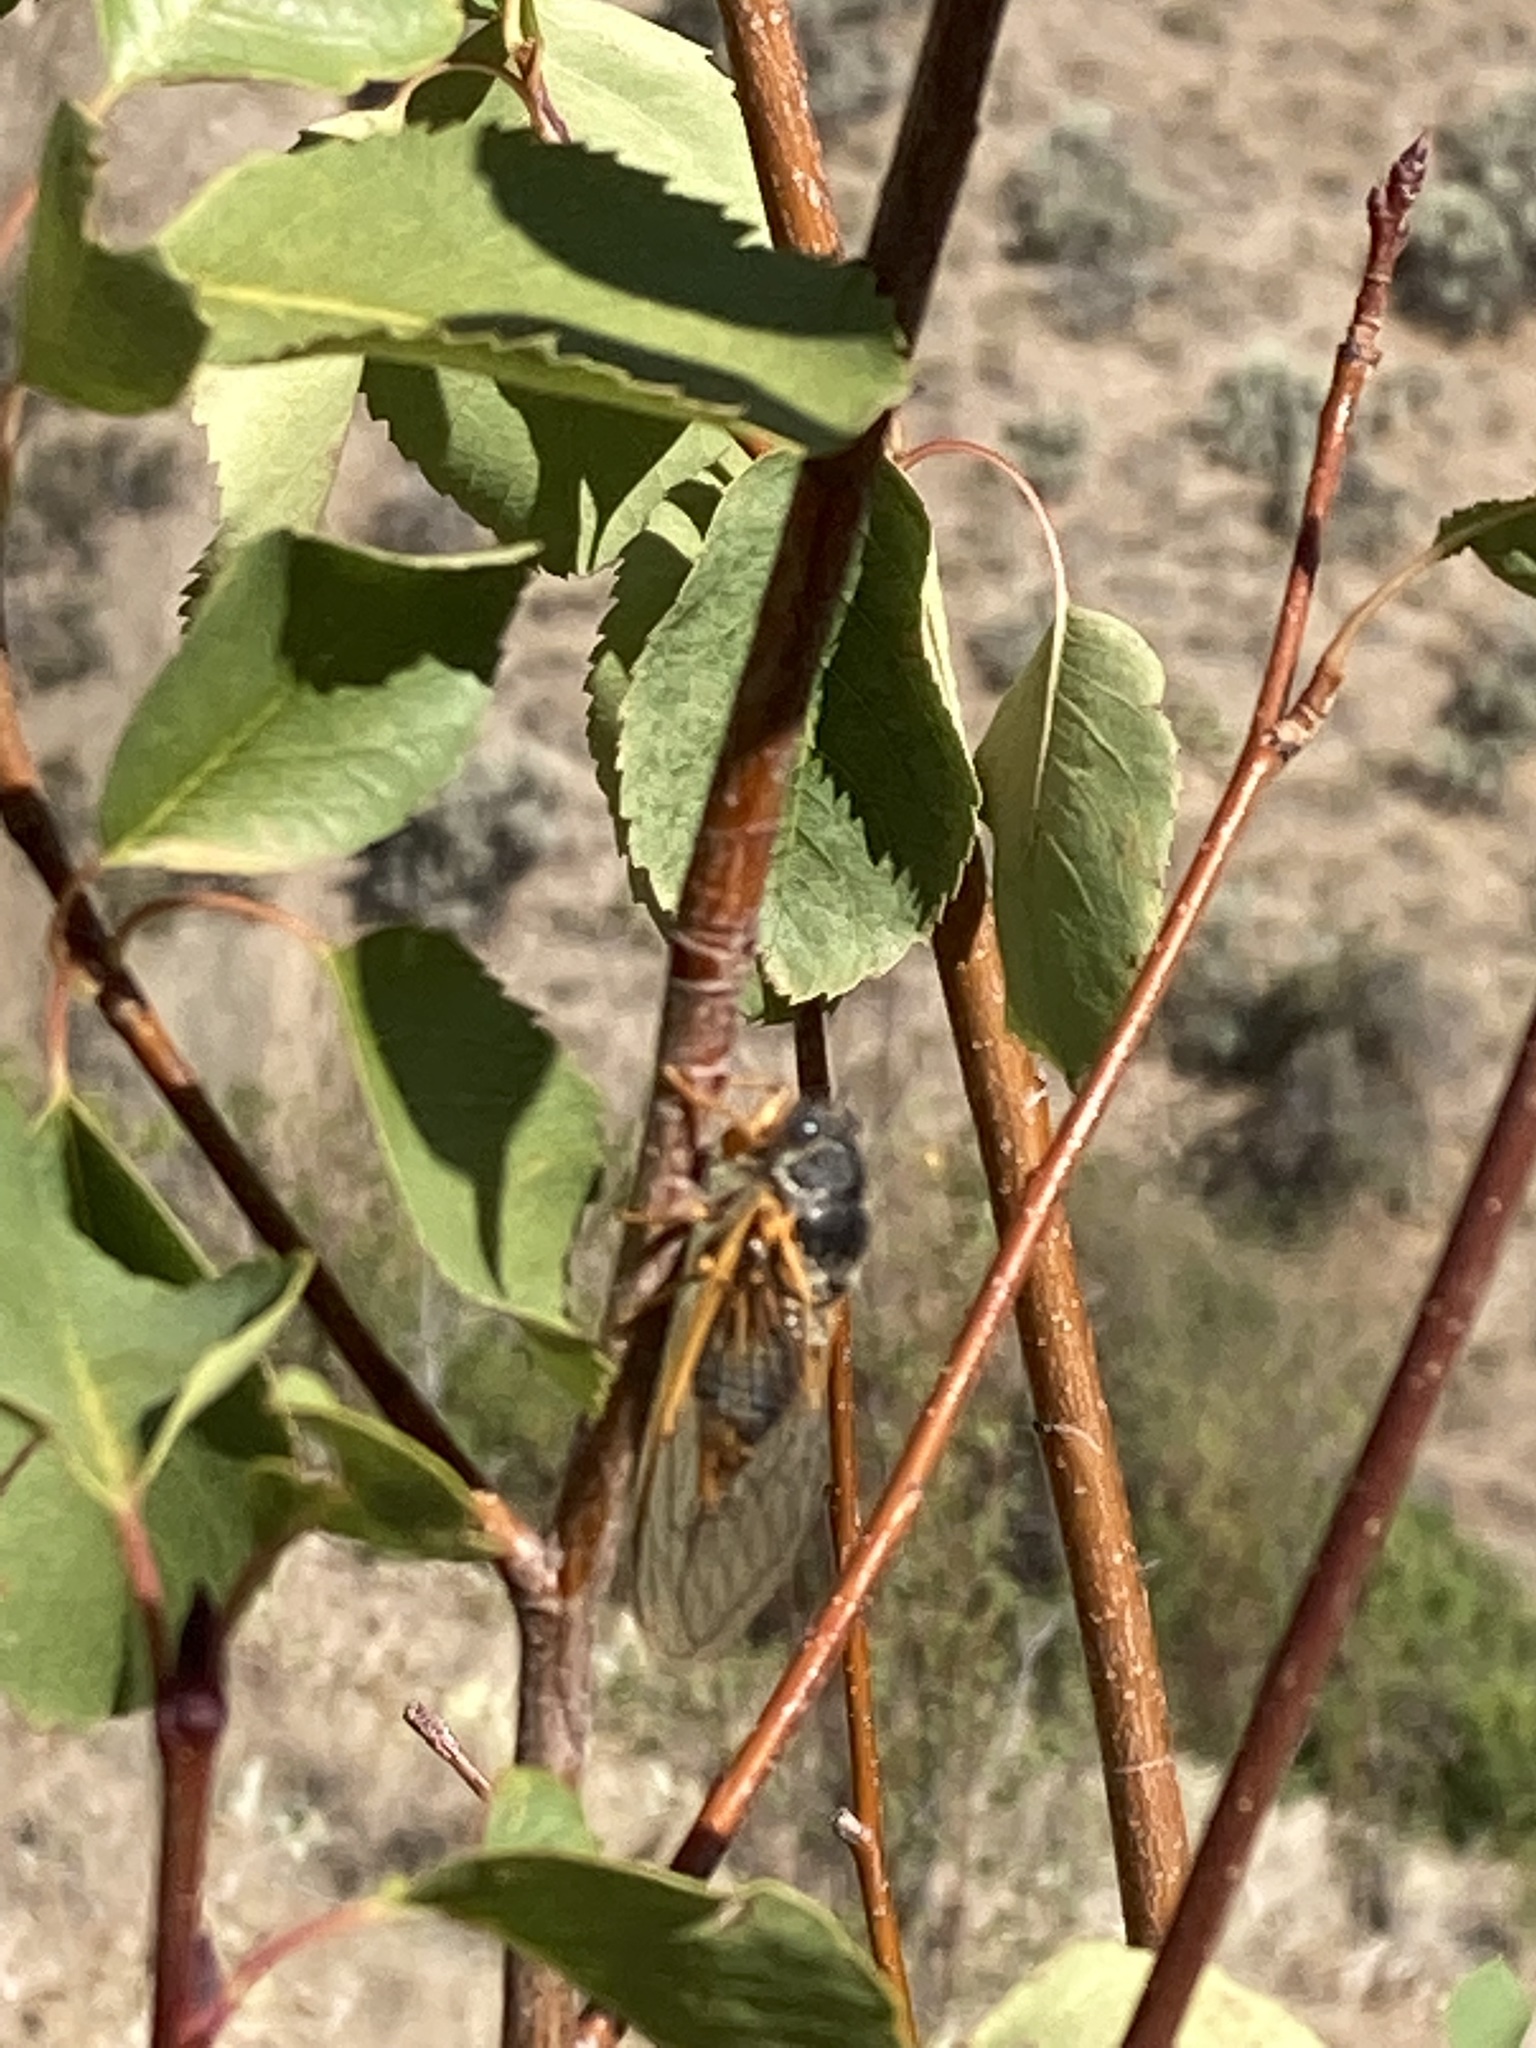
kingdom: Animalia
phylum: Arthropoda
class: Insecta
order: Hemiptera
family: Cicadidae
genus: Okanagana
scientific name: Okanagana ornata
